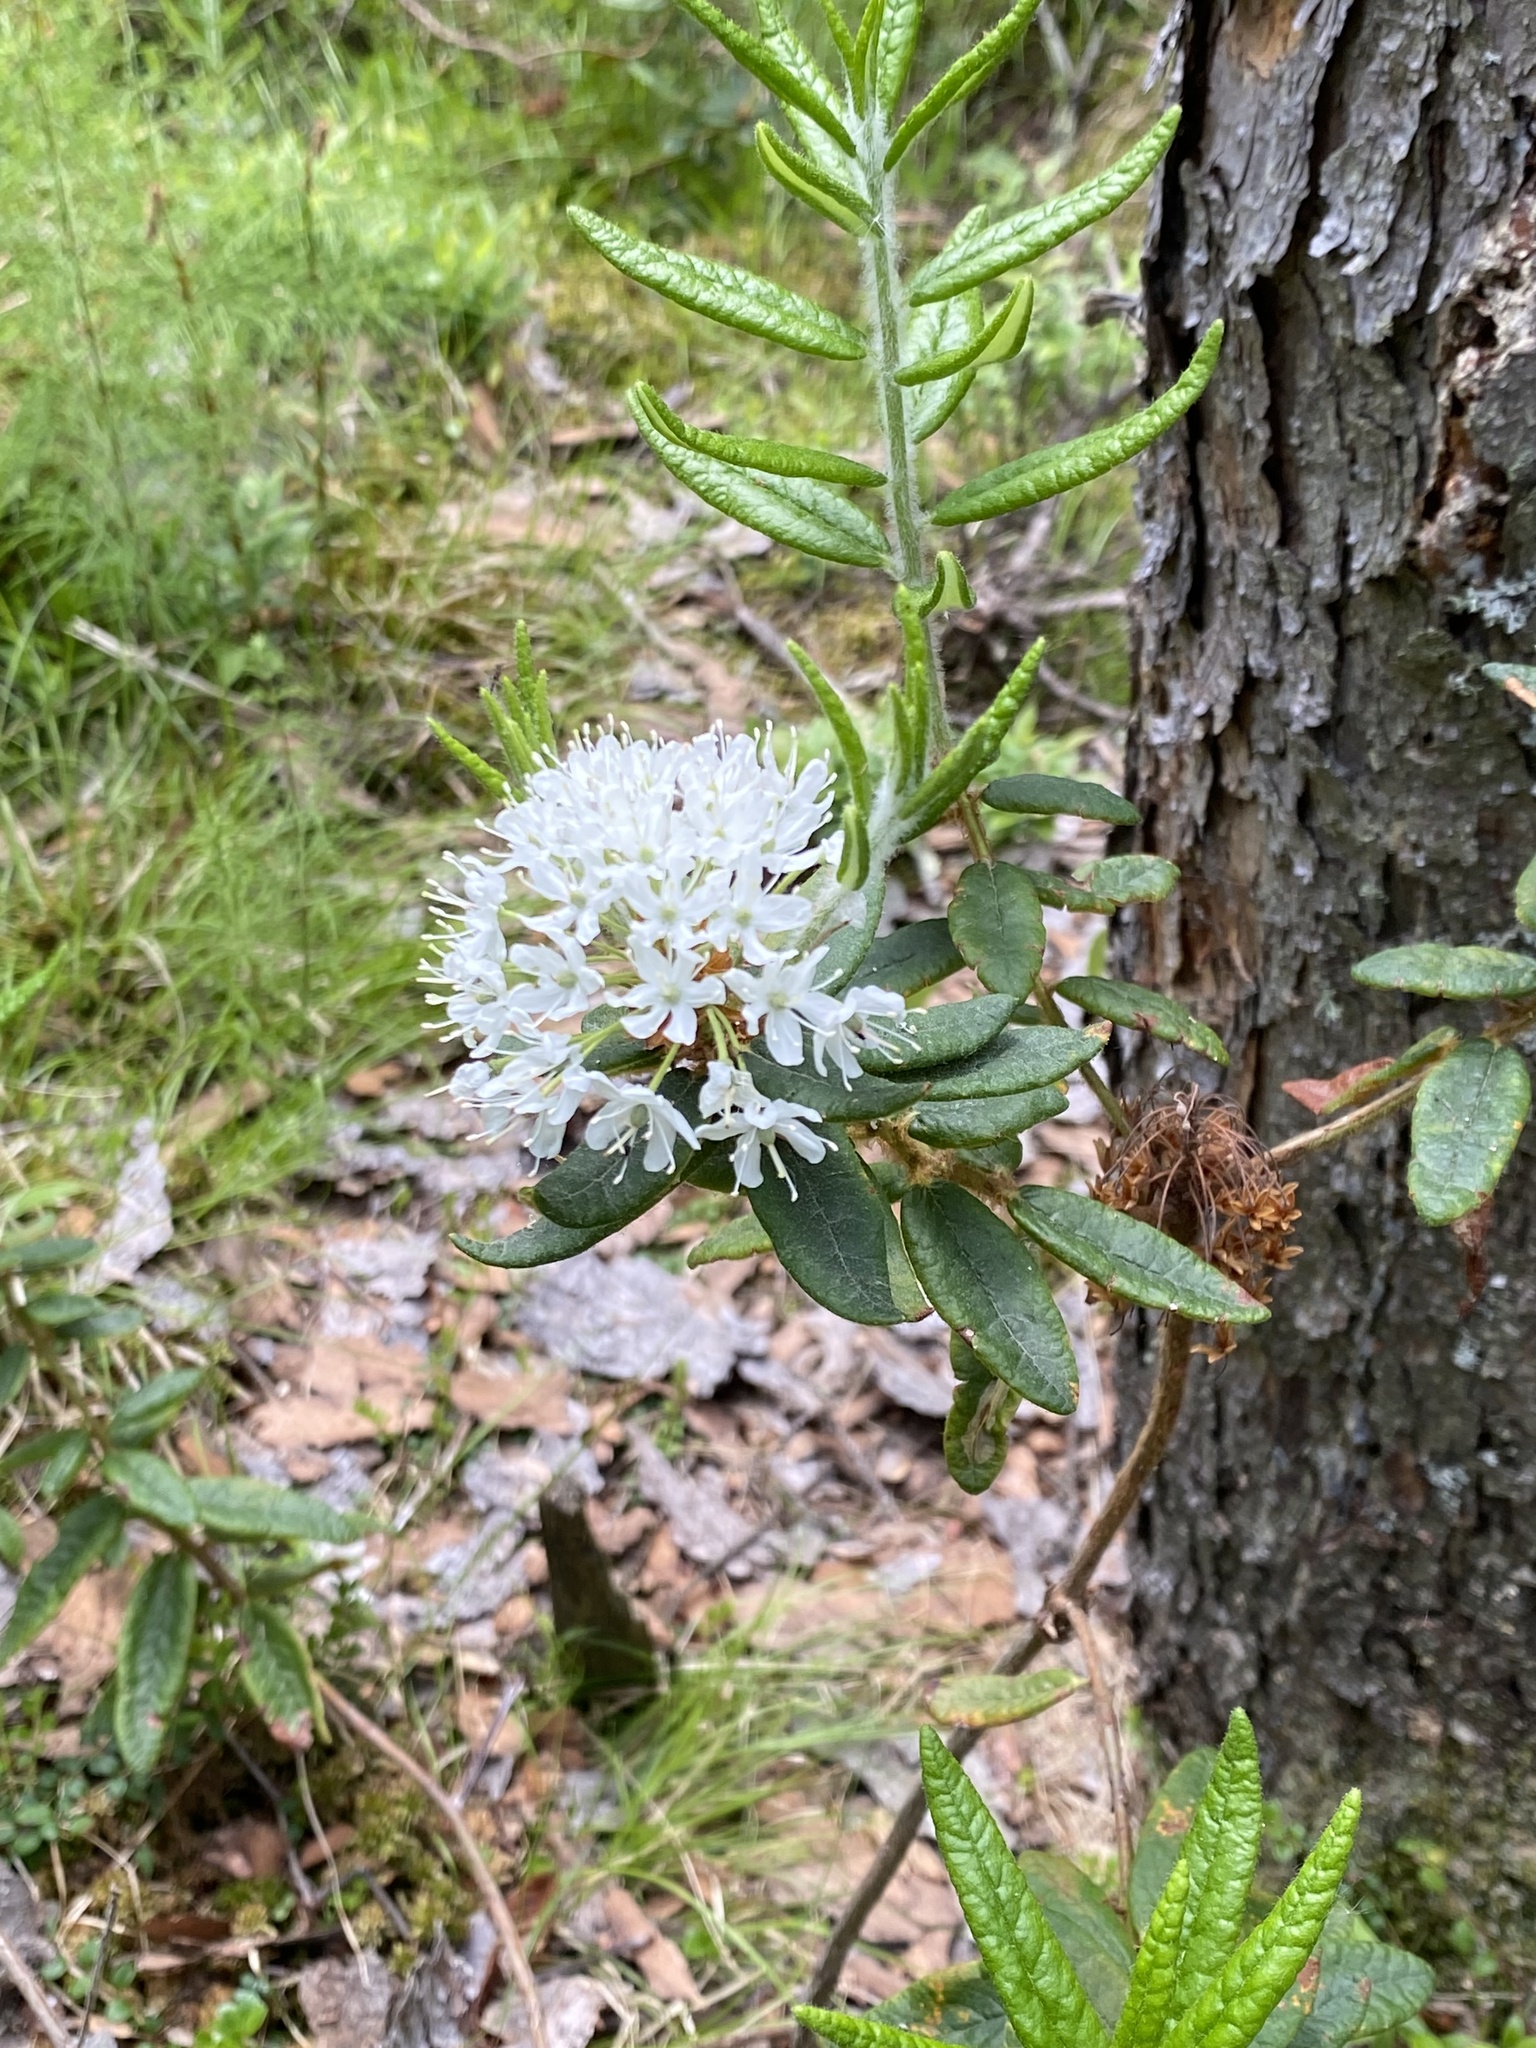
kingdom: Plantae
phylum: Tracheophyta
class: Magnoliopsida
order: Ericales
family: Ericaceae
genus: Rhododendron
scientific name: Rhododendron groenlandicum
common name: Bog labrador tea
